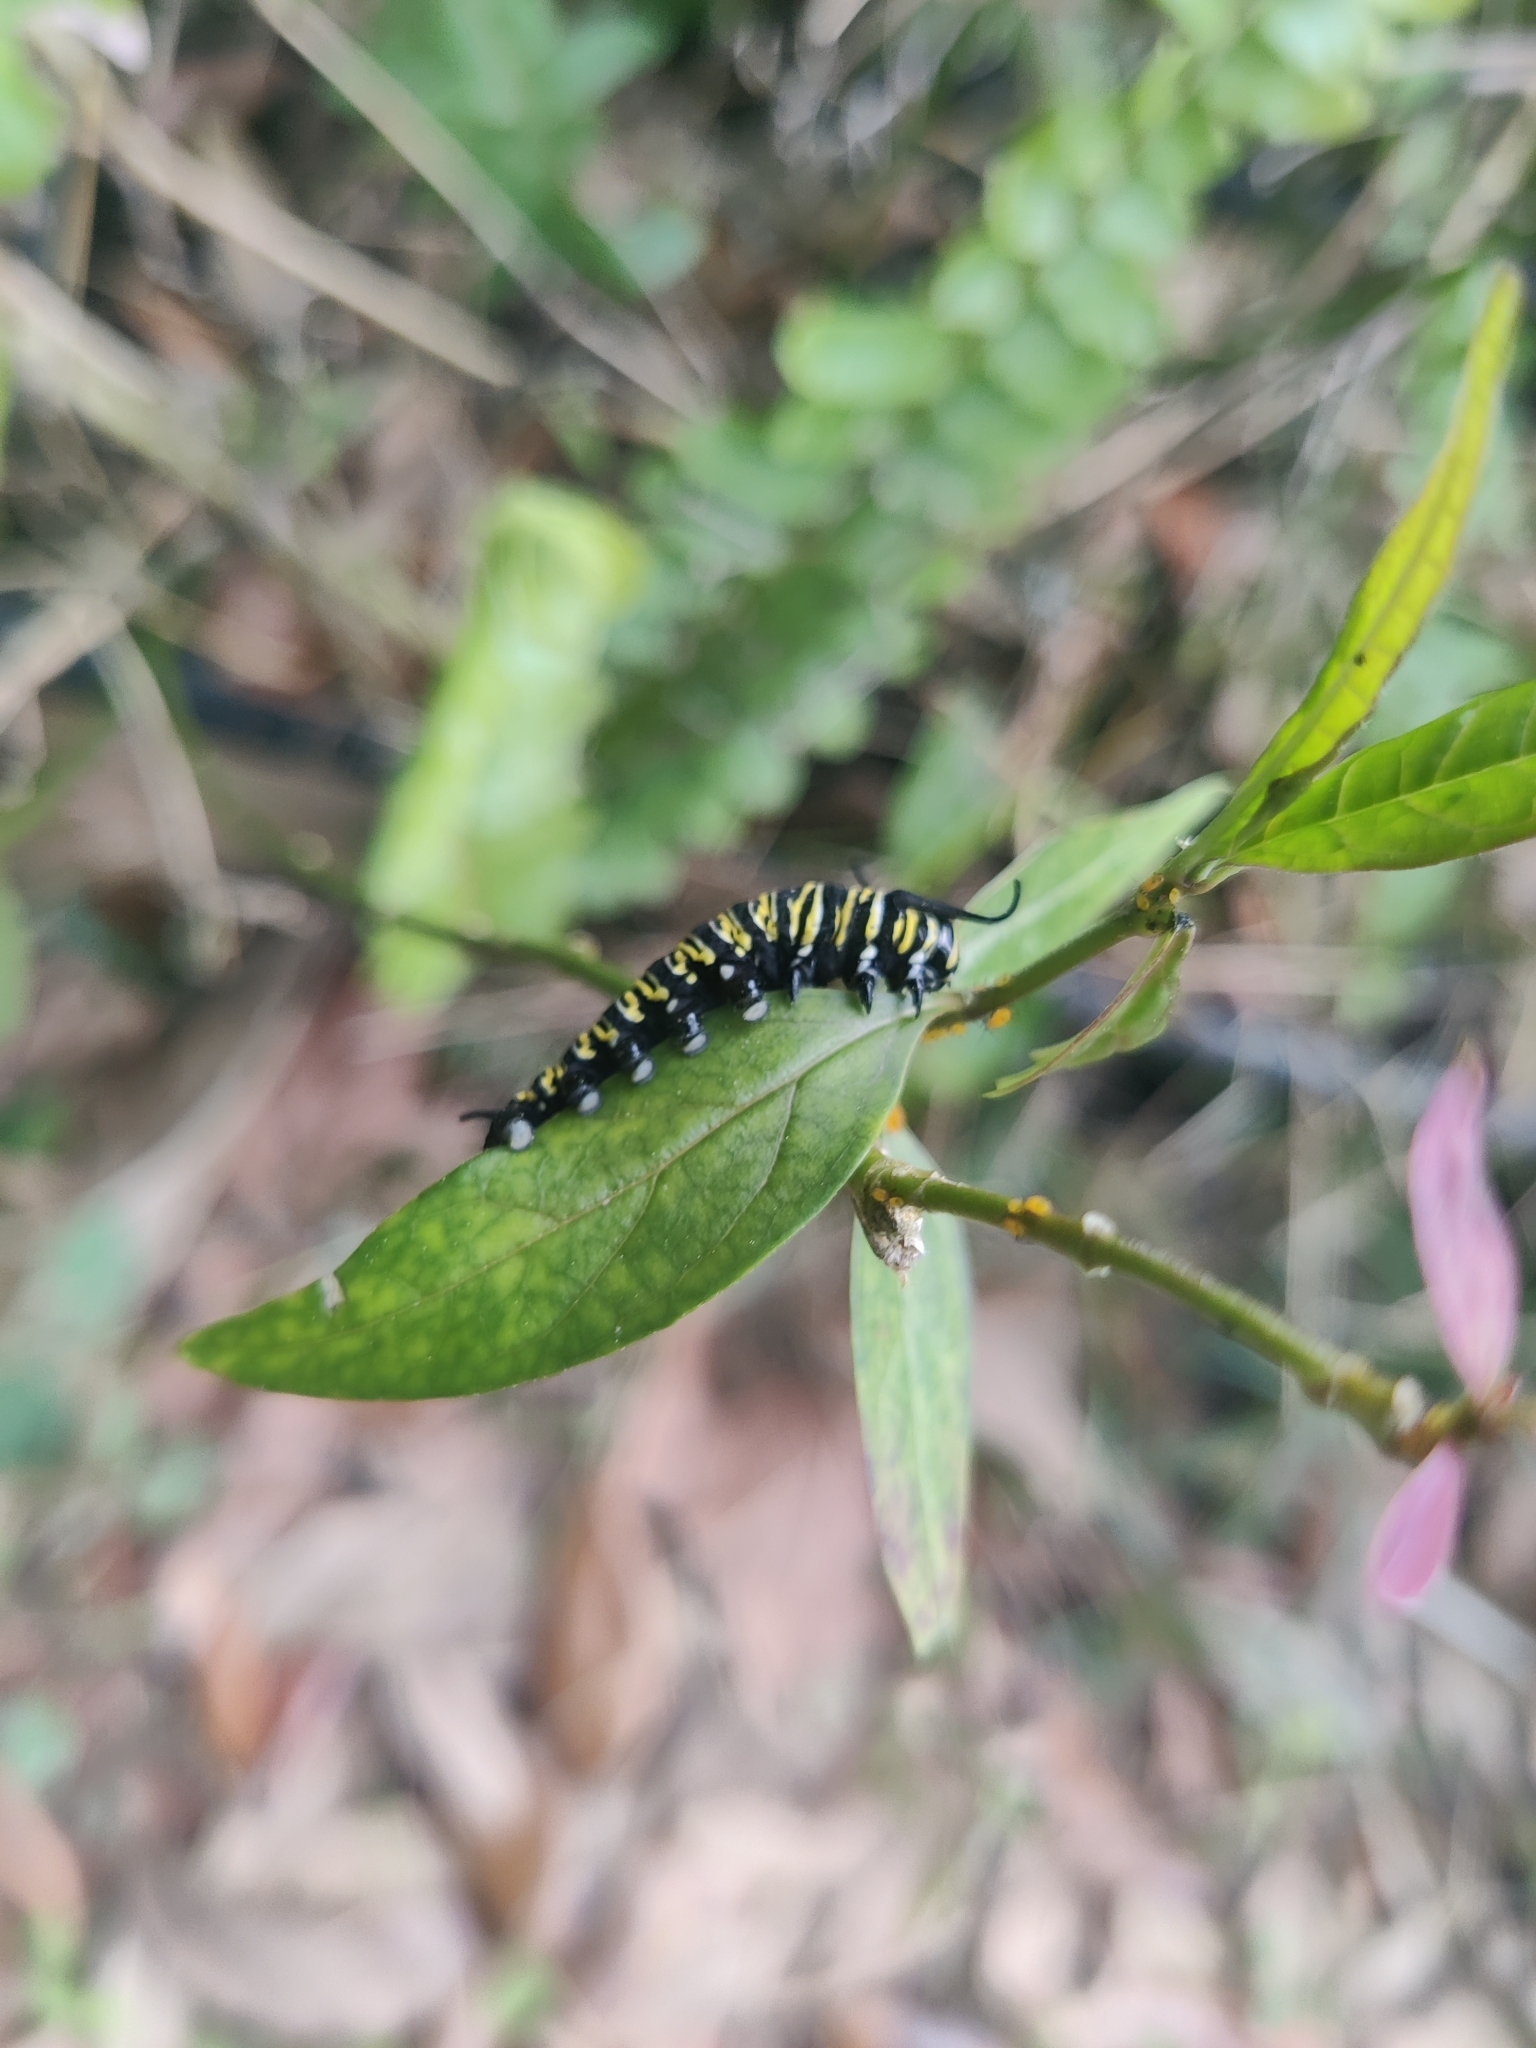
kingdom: Animalia
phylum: Arthropoda
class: Insecta
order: Lepidoptera
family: Nymphalidae
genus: Danaus
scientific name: Danaus plexippus
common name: Monarch
